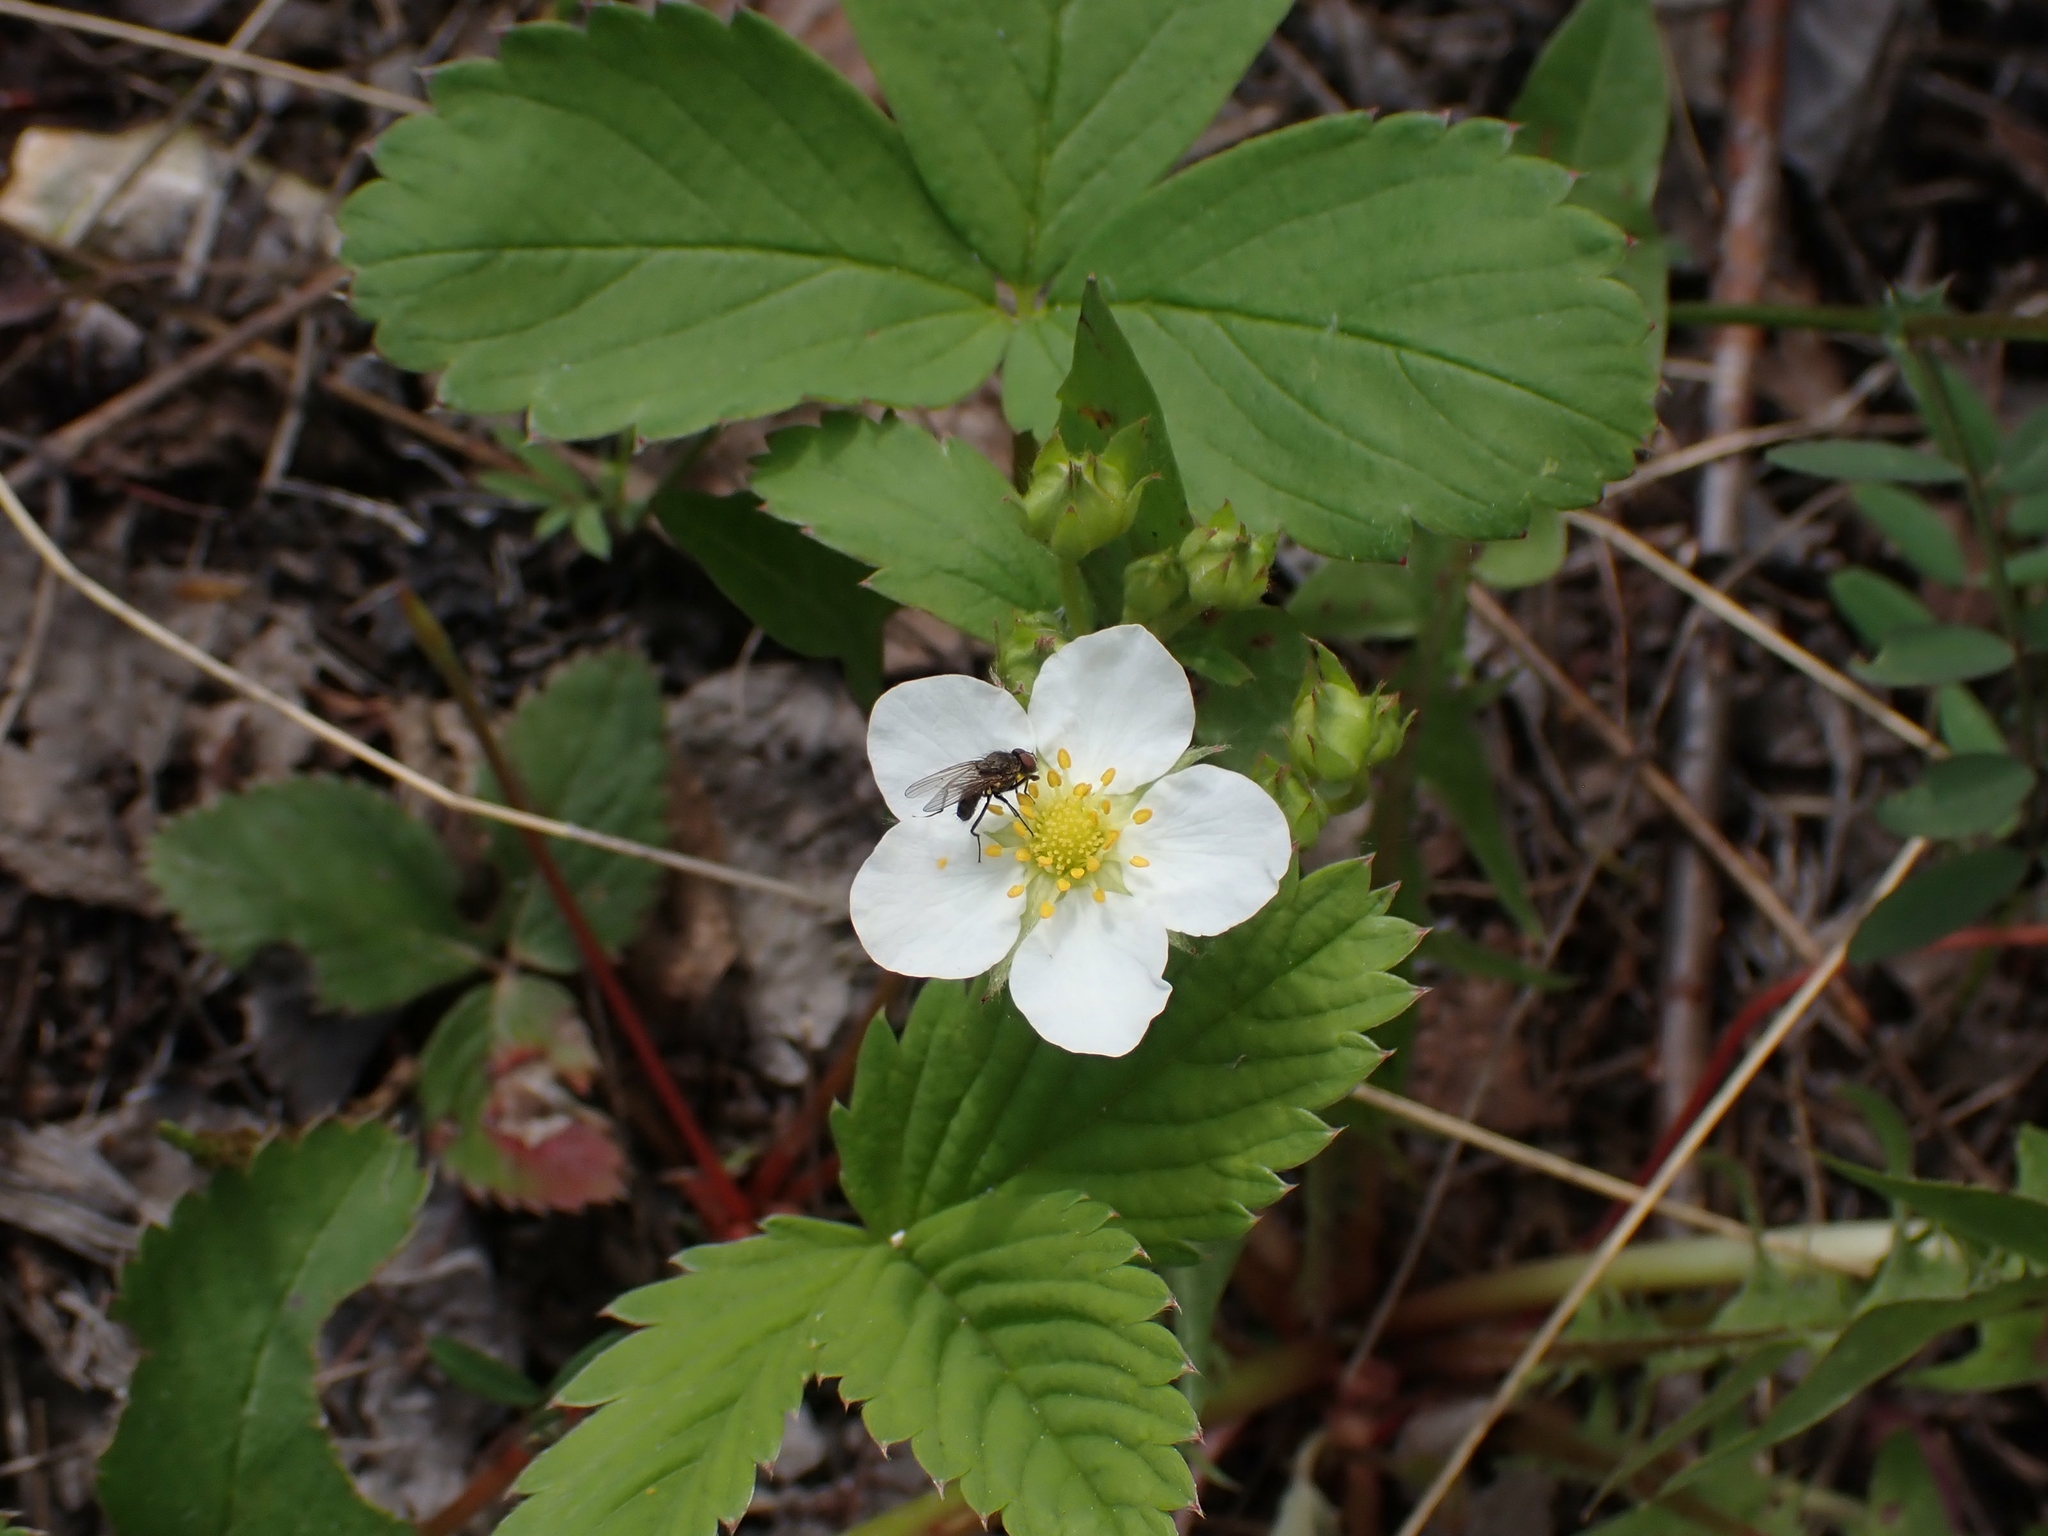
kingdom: Plantae
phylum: Tracheophyta
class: Magnoliopsida
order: Rosales
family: Rosaceae
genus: Fragaria
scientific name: Fragaria virginiana
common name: Thickleaved wild strawberry
